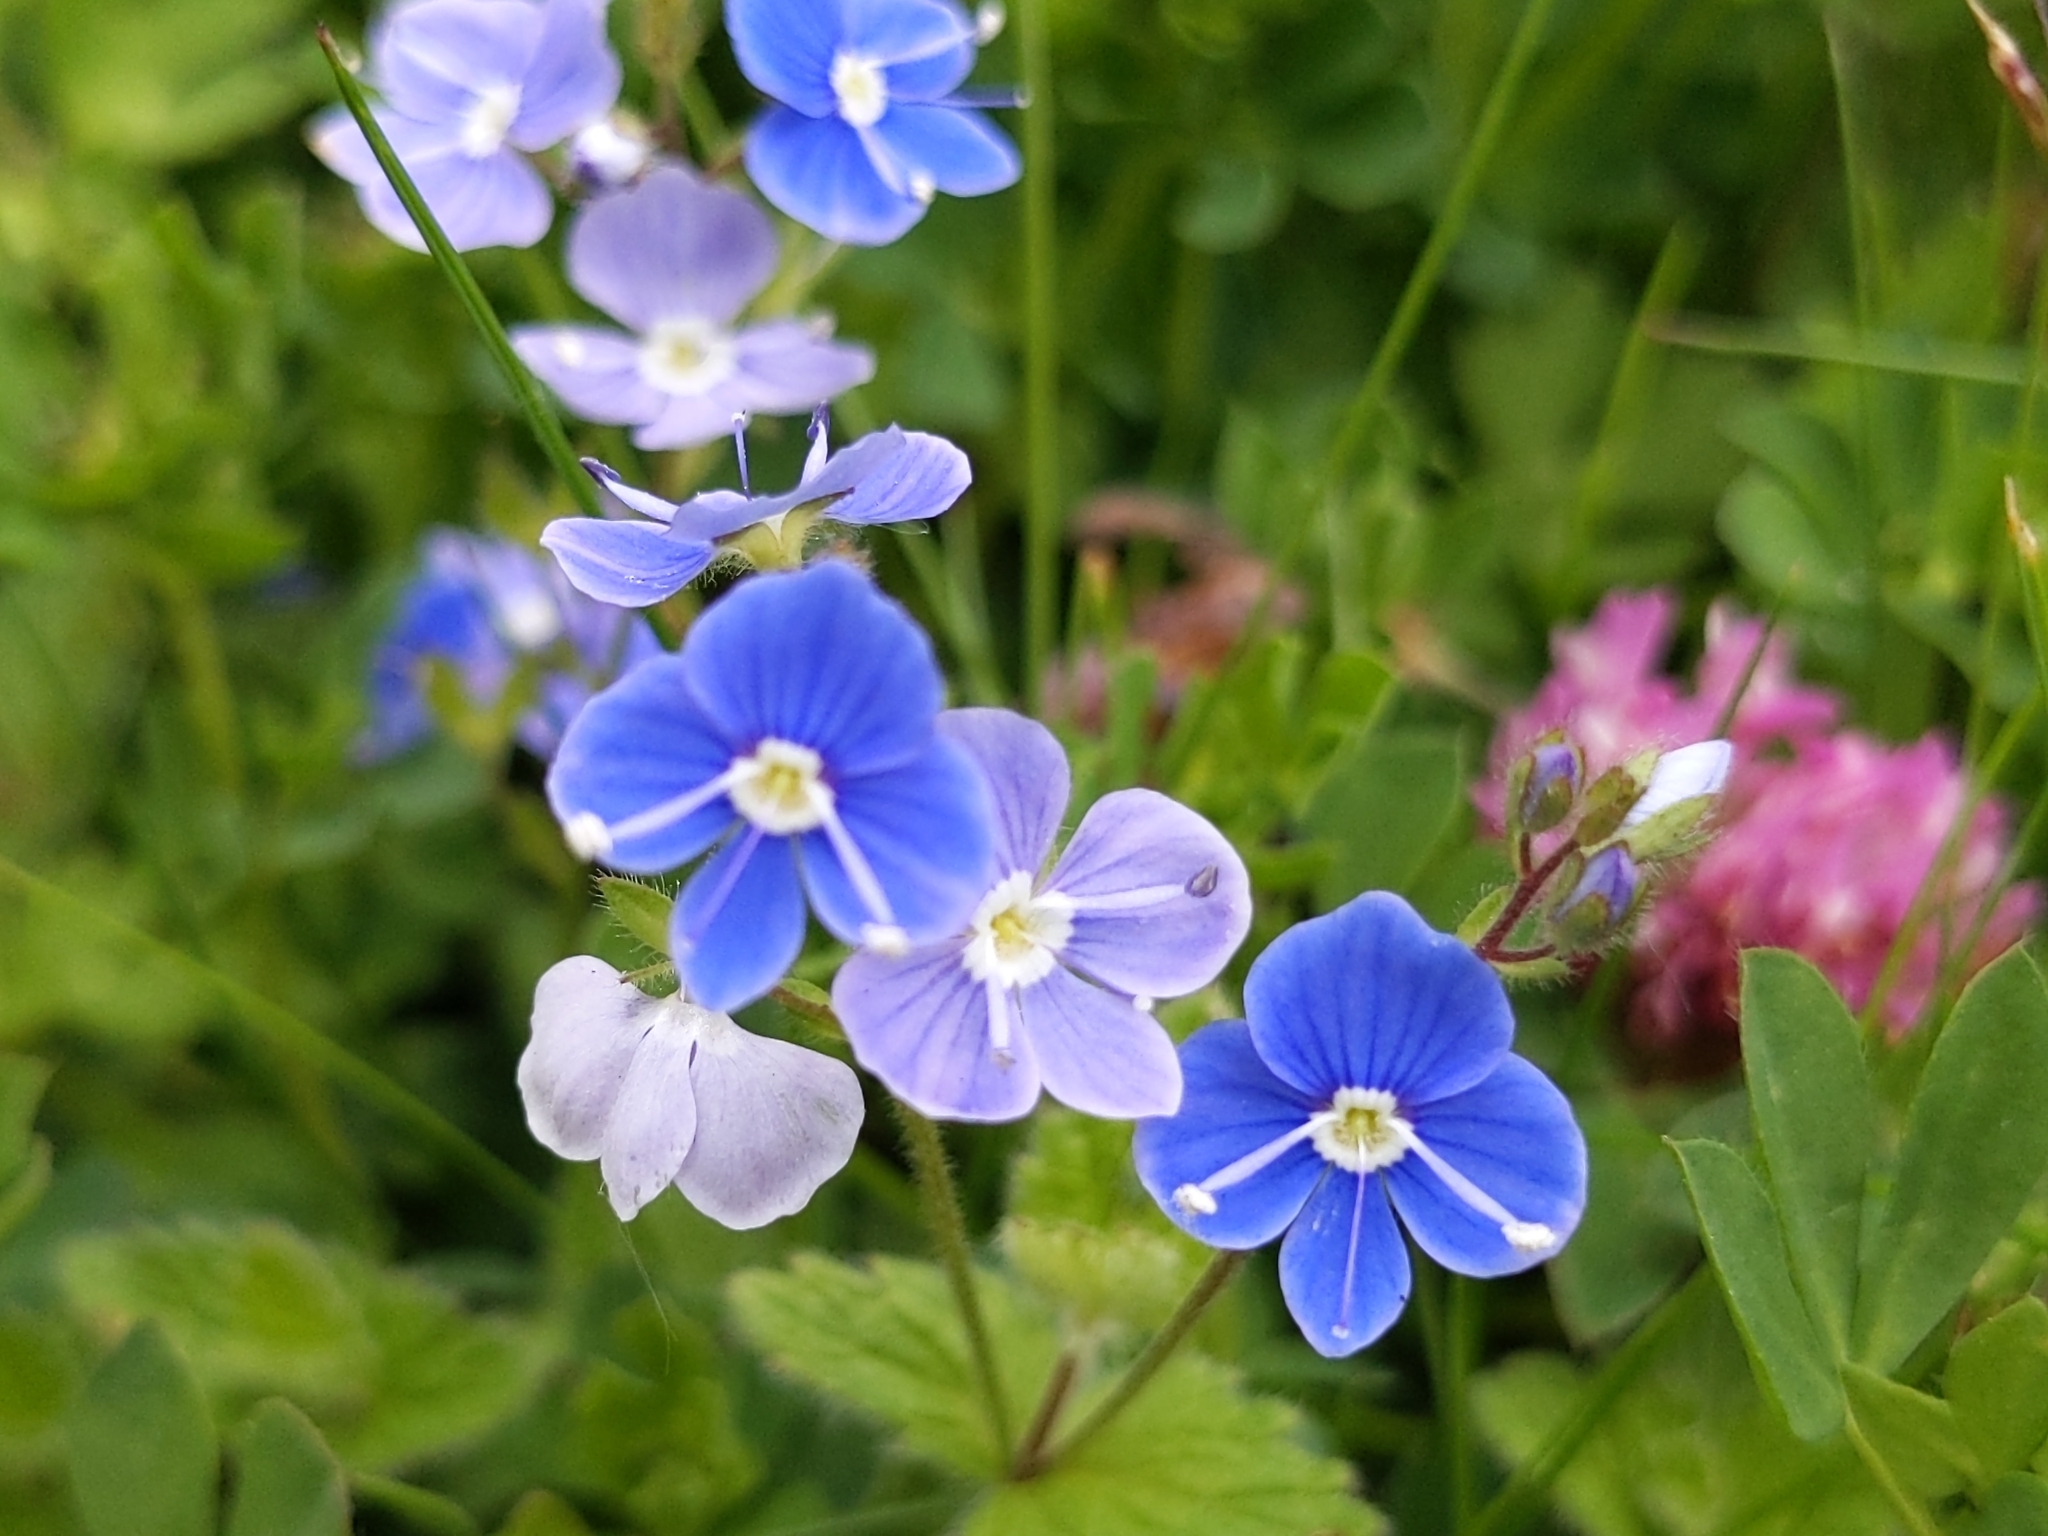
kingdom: Plantae
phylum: Tracheophyta
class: Magnoliopsida
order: Lamiales
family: Plantaginaceae
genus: Veronica
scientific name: Veronica chamaedrys
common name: Germander speedwell
